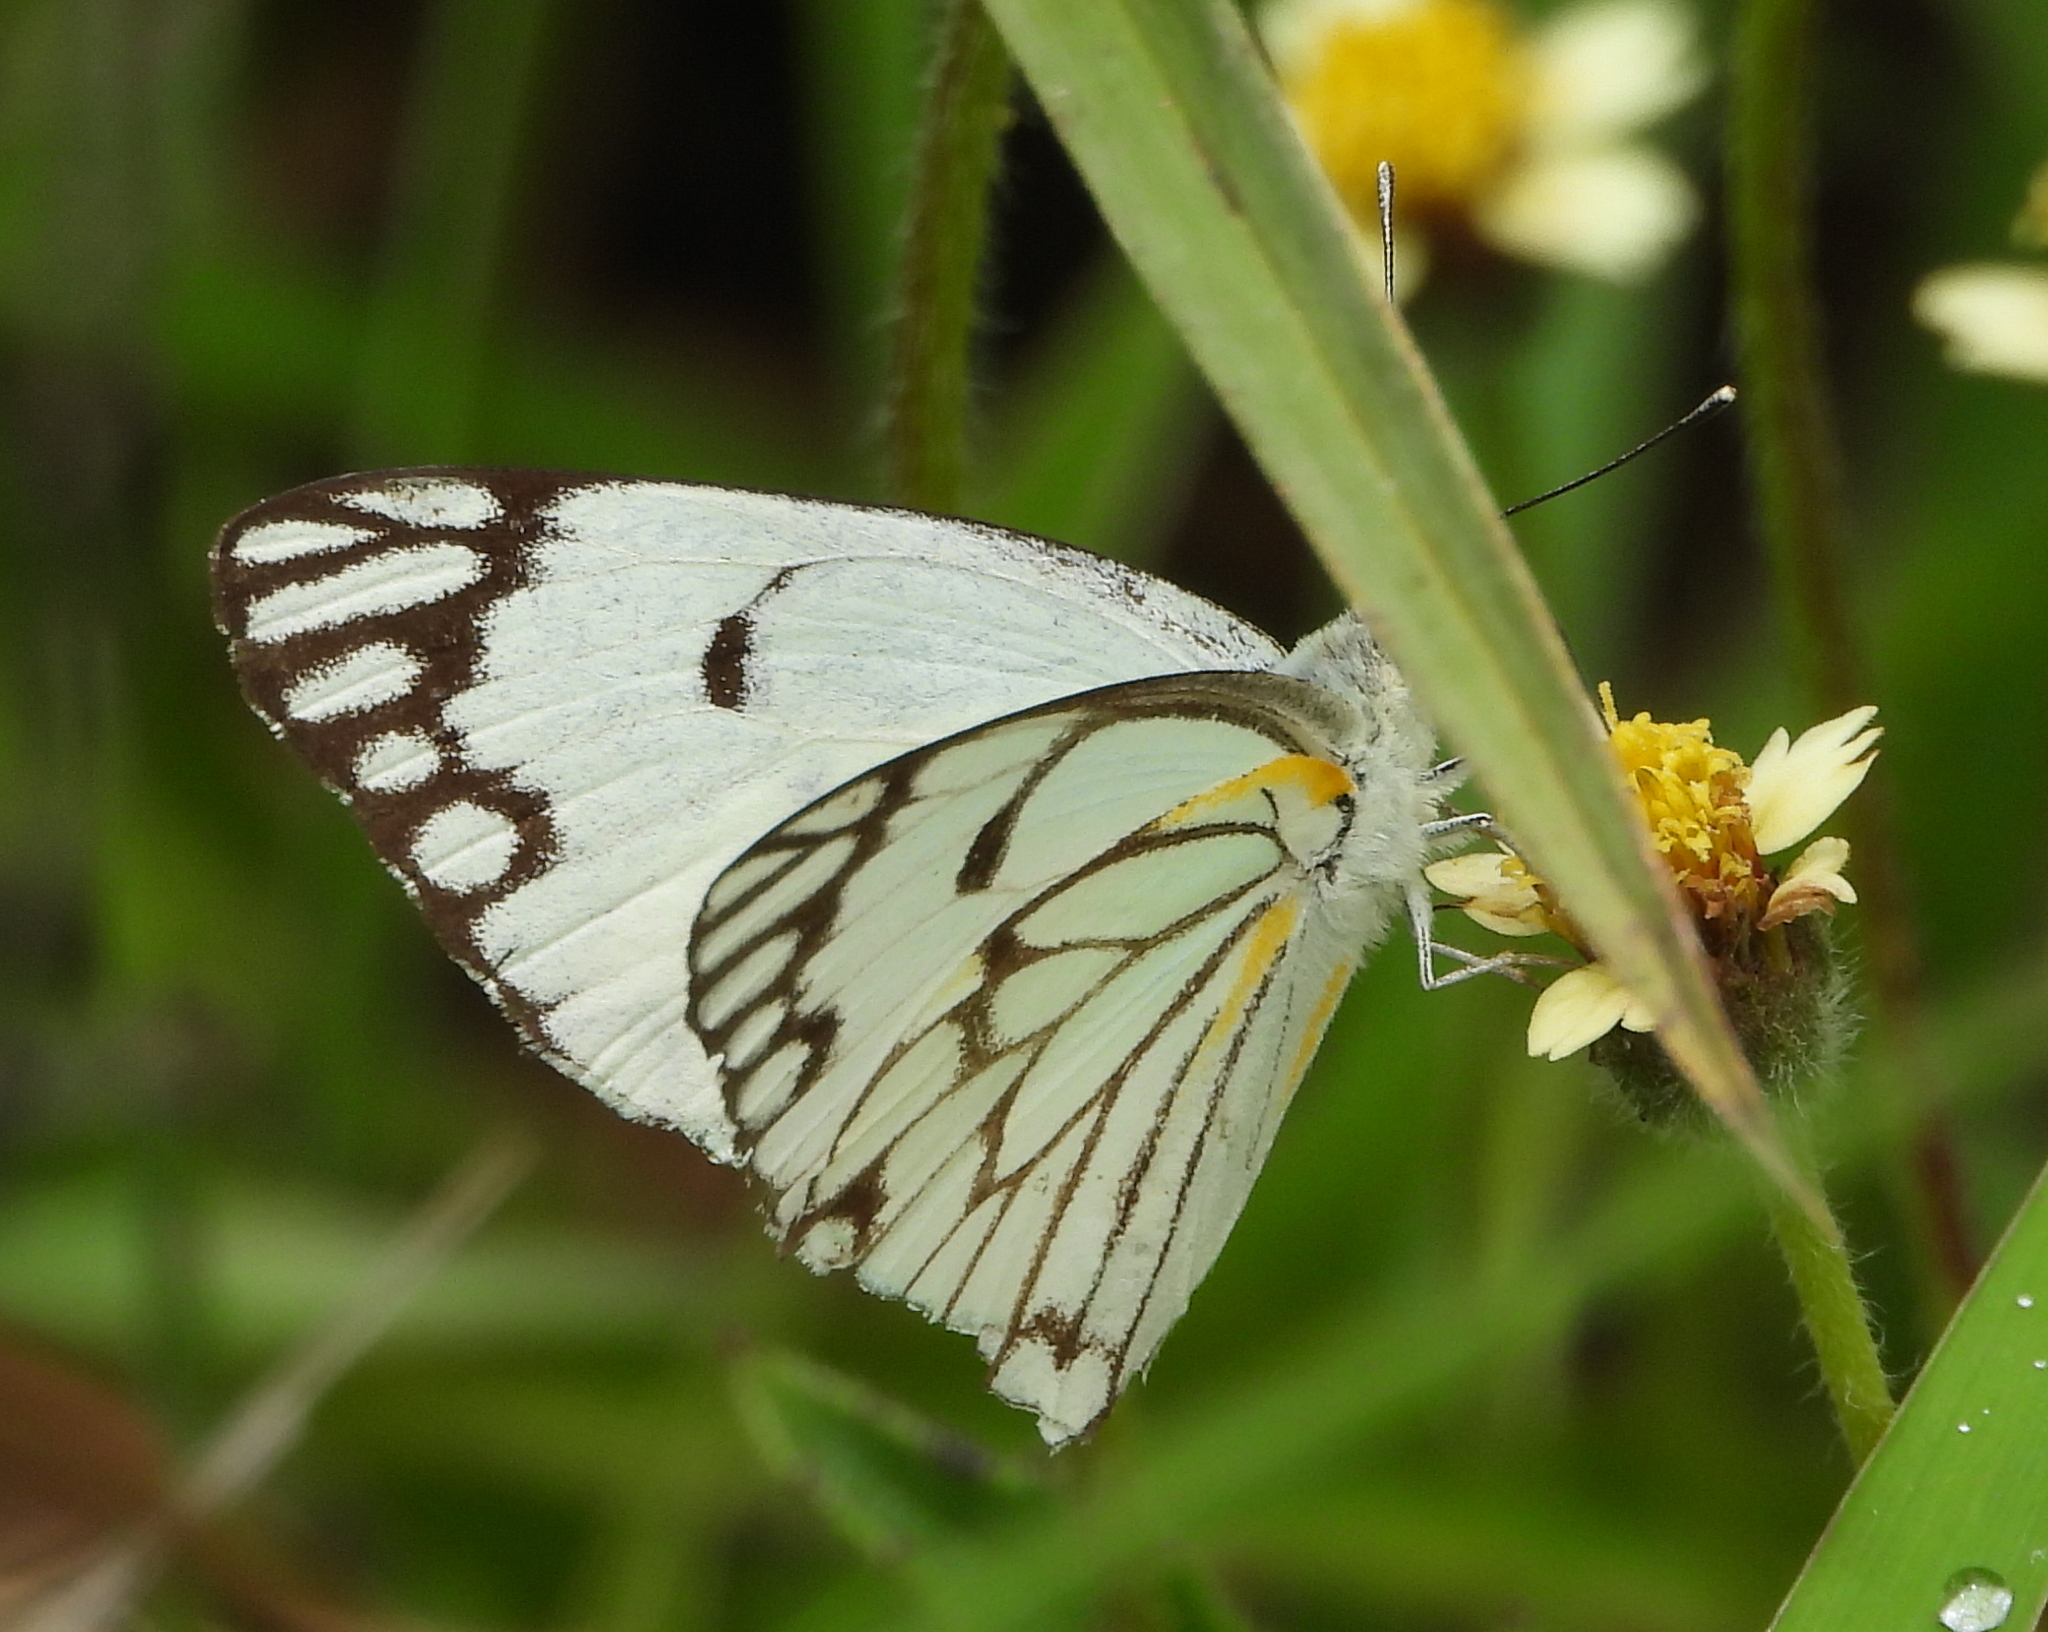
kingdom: Animalia
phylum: Arthropoda
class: Insecta
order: Lepidoptera
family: Pieridae
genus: Belenois
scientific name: Belenois aurota
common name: Brown-veined white
